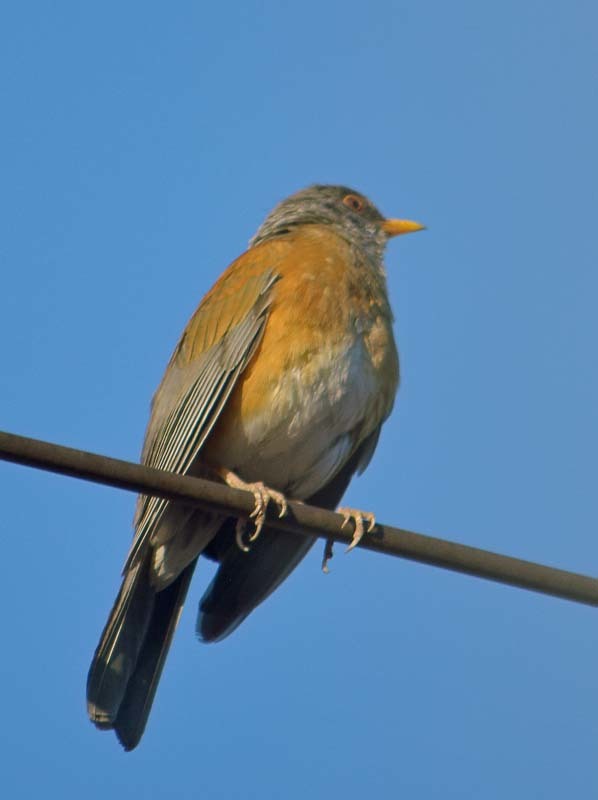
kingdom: Animalia
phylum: Chordata
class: Aves
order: Passeriformes
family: Turdidae
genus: Turdus
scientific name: Turdus rufopalliatus
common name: Rufous-backed robin
